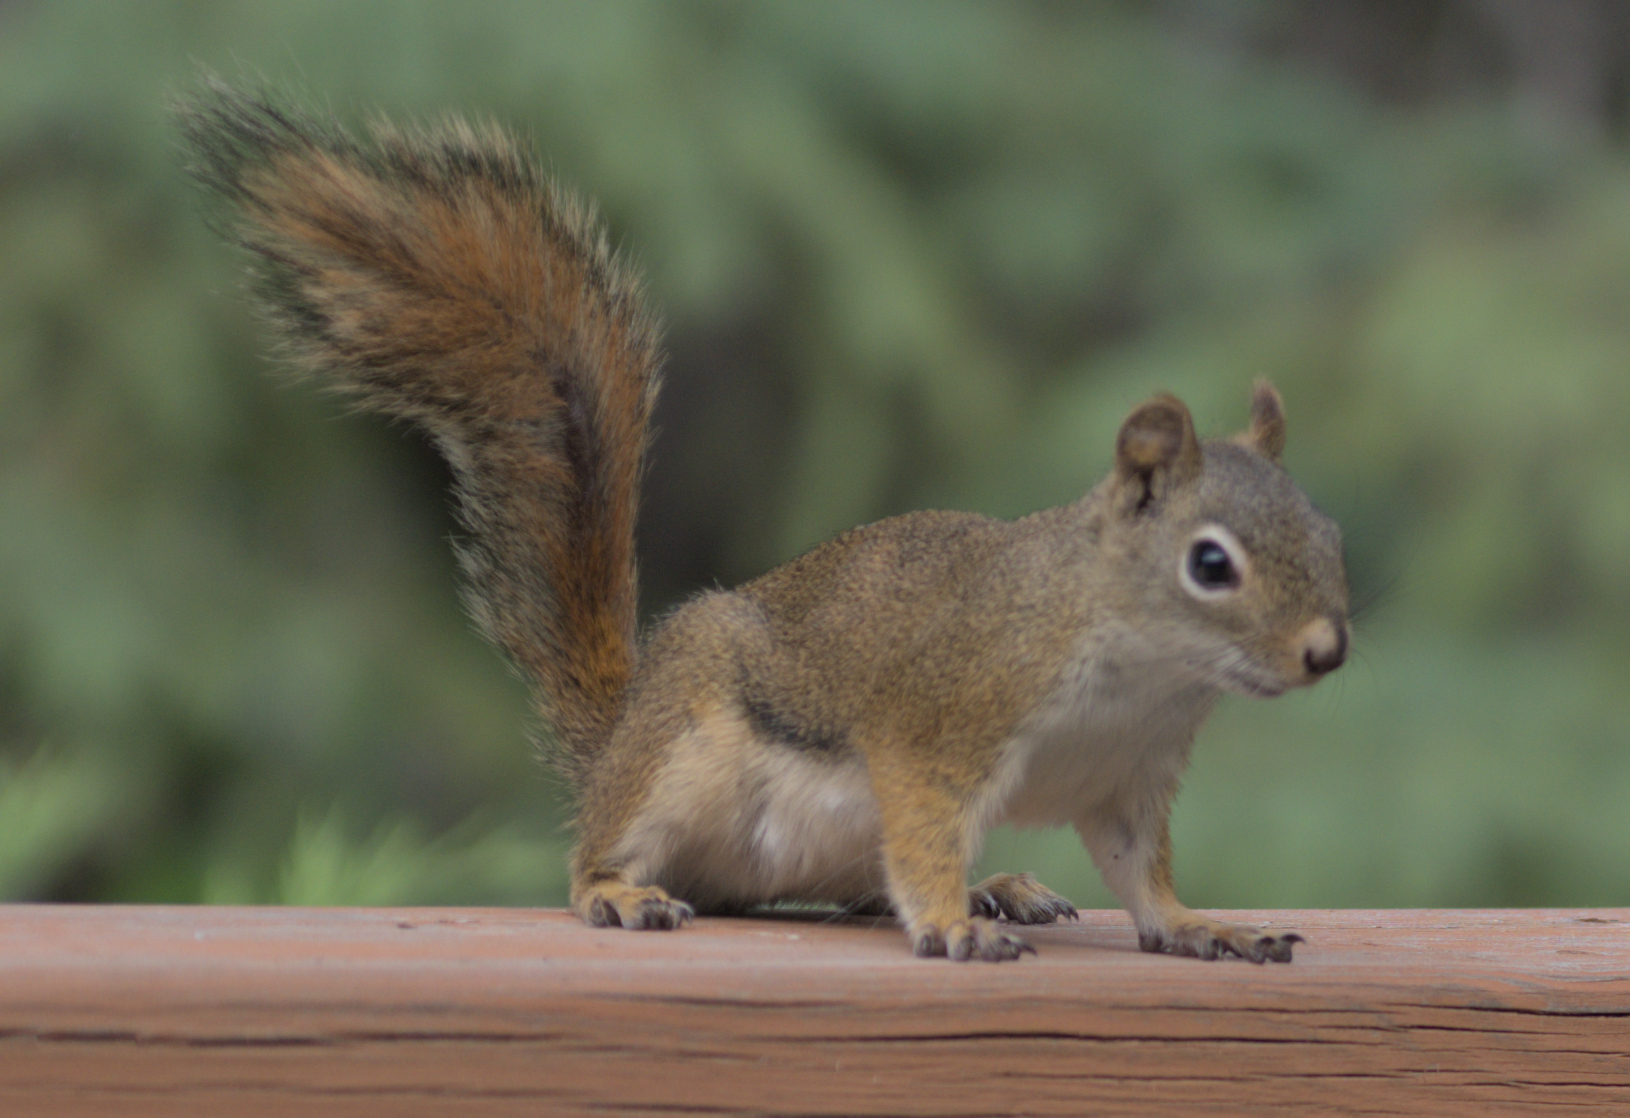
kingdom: Animalia
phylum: Chordata
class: Mammalia
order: Rodentia
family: Sciuridae
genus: Tamiasciurus
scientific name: Tamiasciurus hudsonicus
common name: Red squirrel
